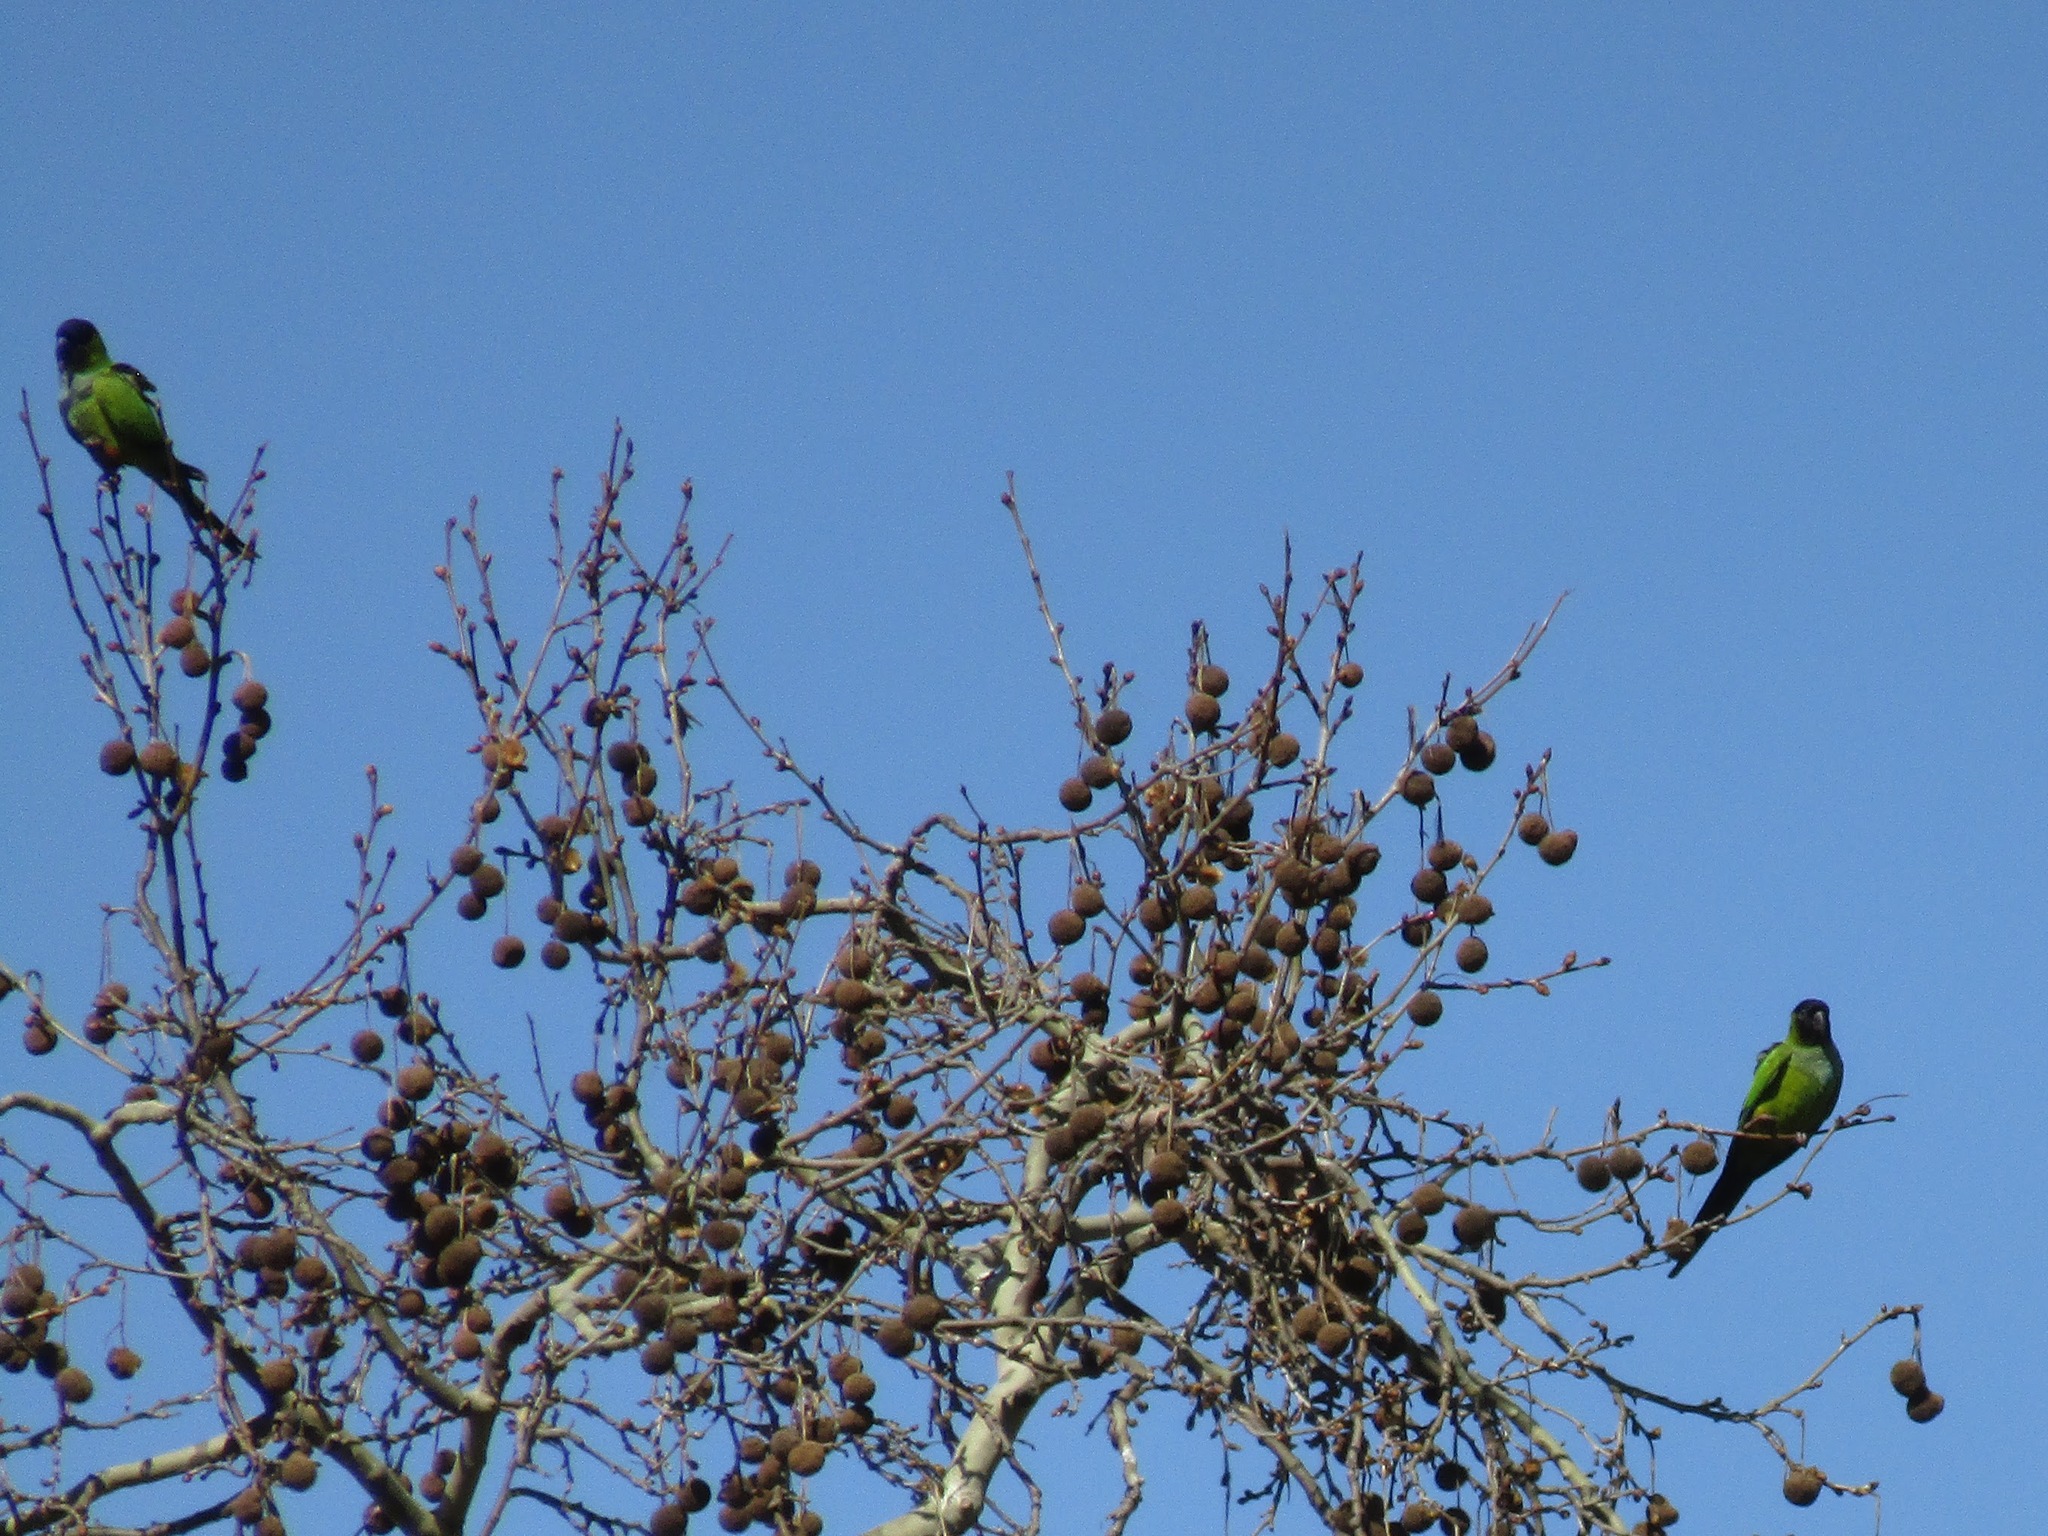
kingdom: Animalia
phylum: Chordata
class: Aves
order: Psittaciformes
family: Psittacidae
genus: Nandayus
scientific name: Nandayus nenday
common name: Nanday parakeet
